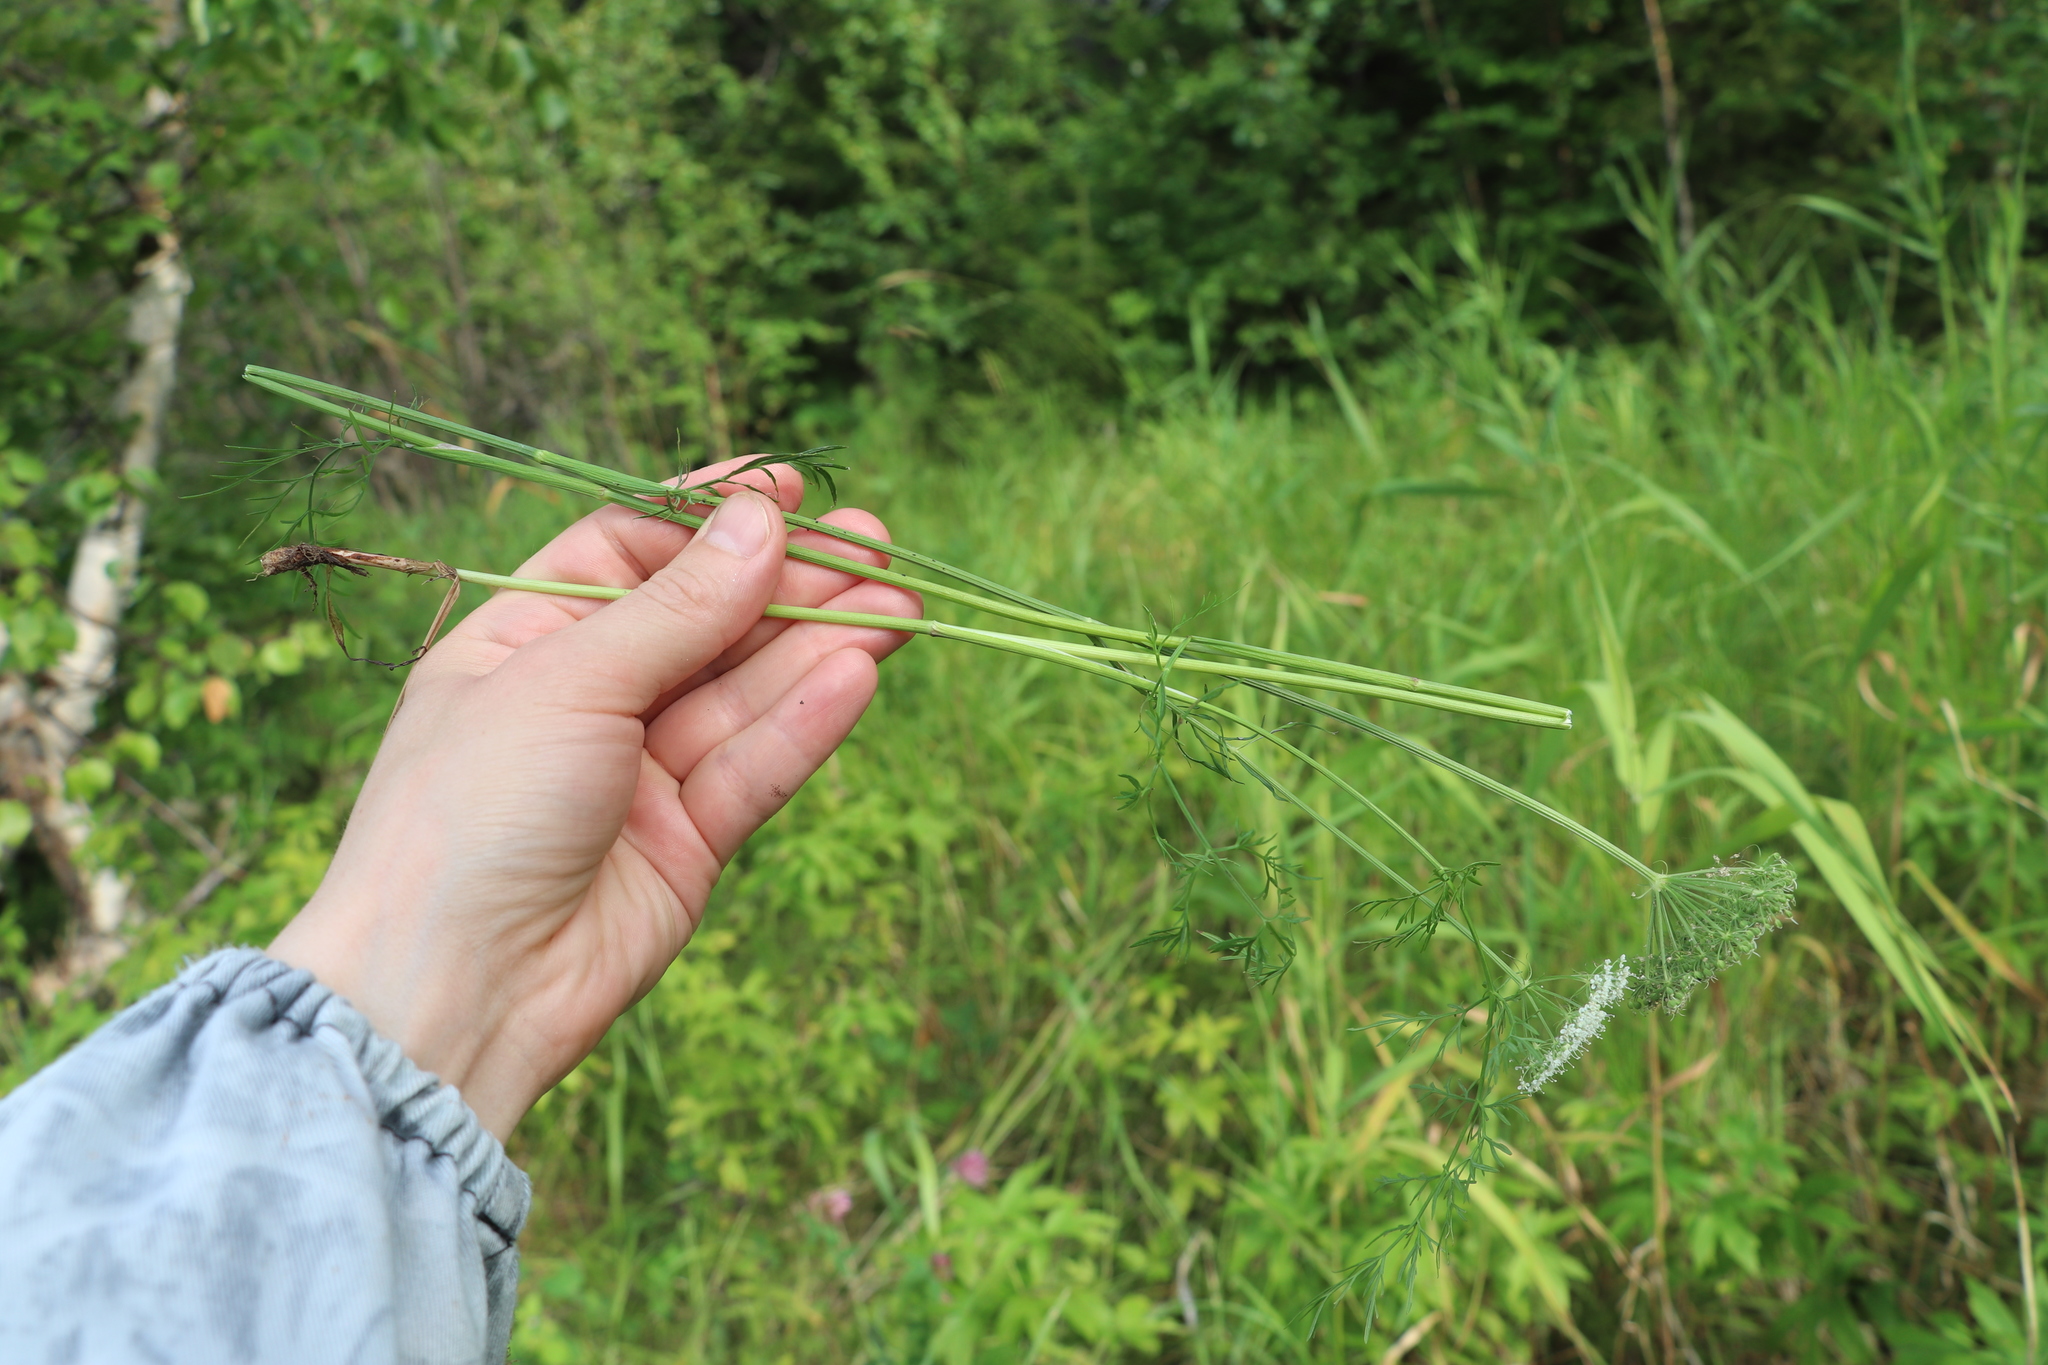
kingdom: Plantae
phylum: Tracheophyta
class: Magnoliopsida
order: Apiales
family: Apiaceae
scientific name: Apiaceae
